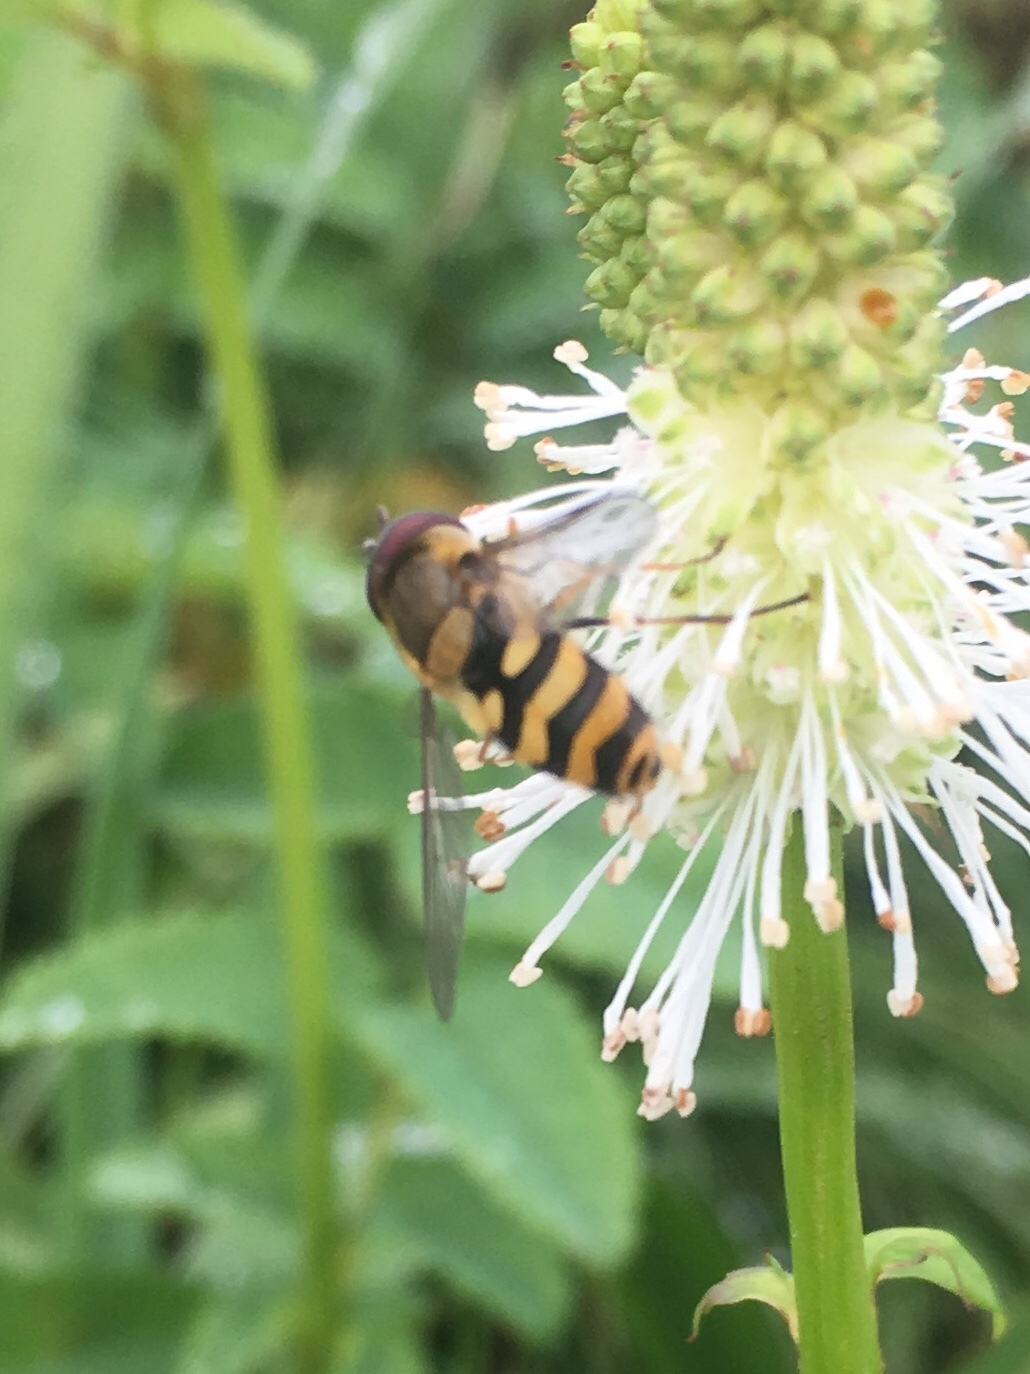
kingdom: Animalia
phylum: Arthropoda
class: Insecta
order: Diptera
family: Syrphidae
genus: Syrphus
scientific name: Syrphus
